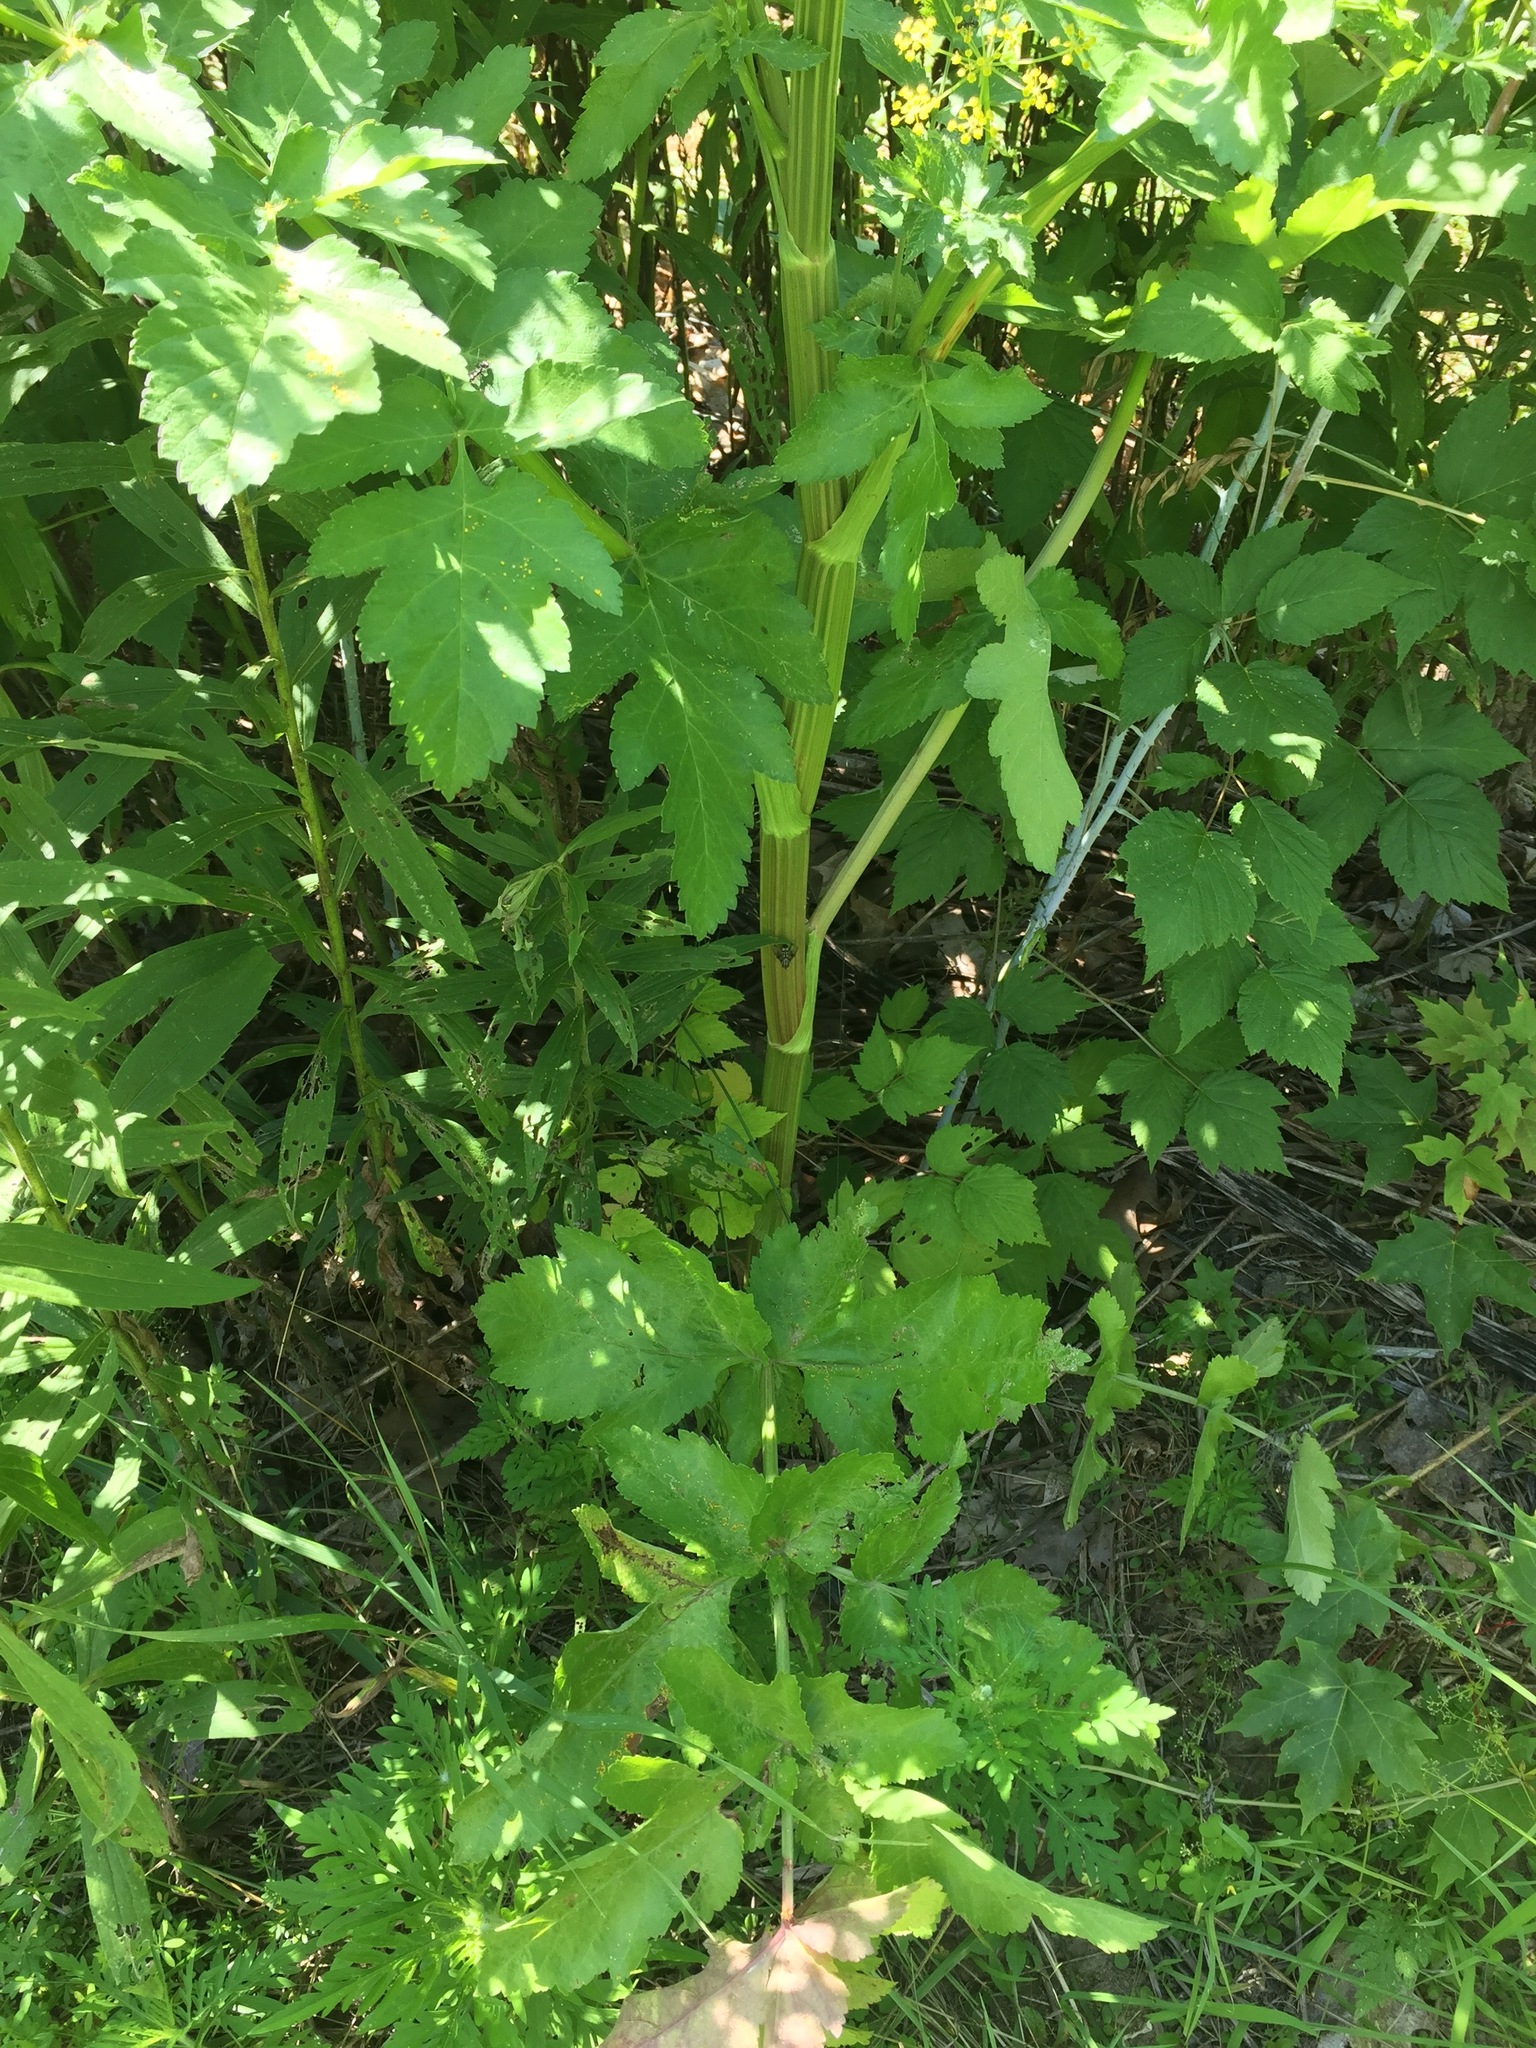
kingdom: Plantae
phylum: Tracheophyta
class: Magnoliopsida
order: Apiales
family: Apiaceae
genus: Pastinaca
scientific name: Pastinaca sativa
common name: Wild parsnip
